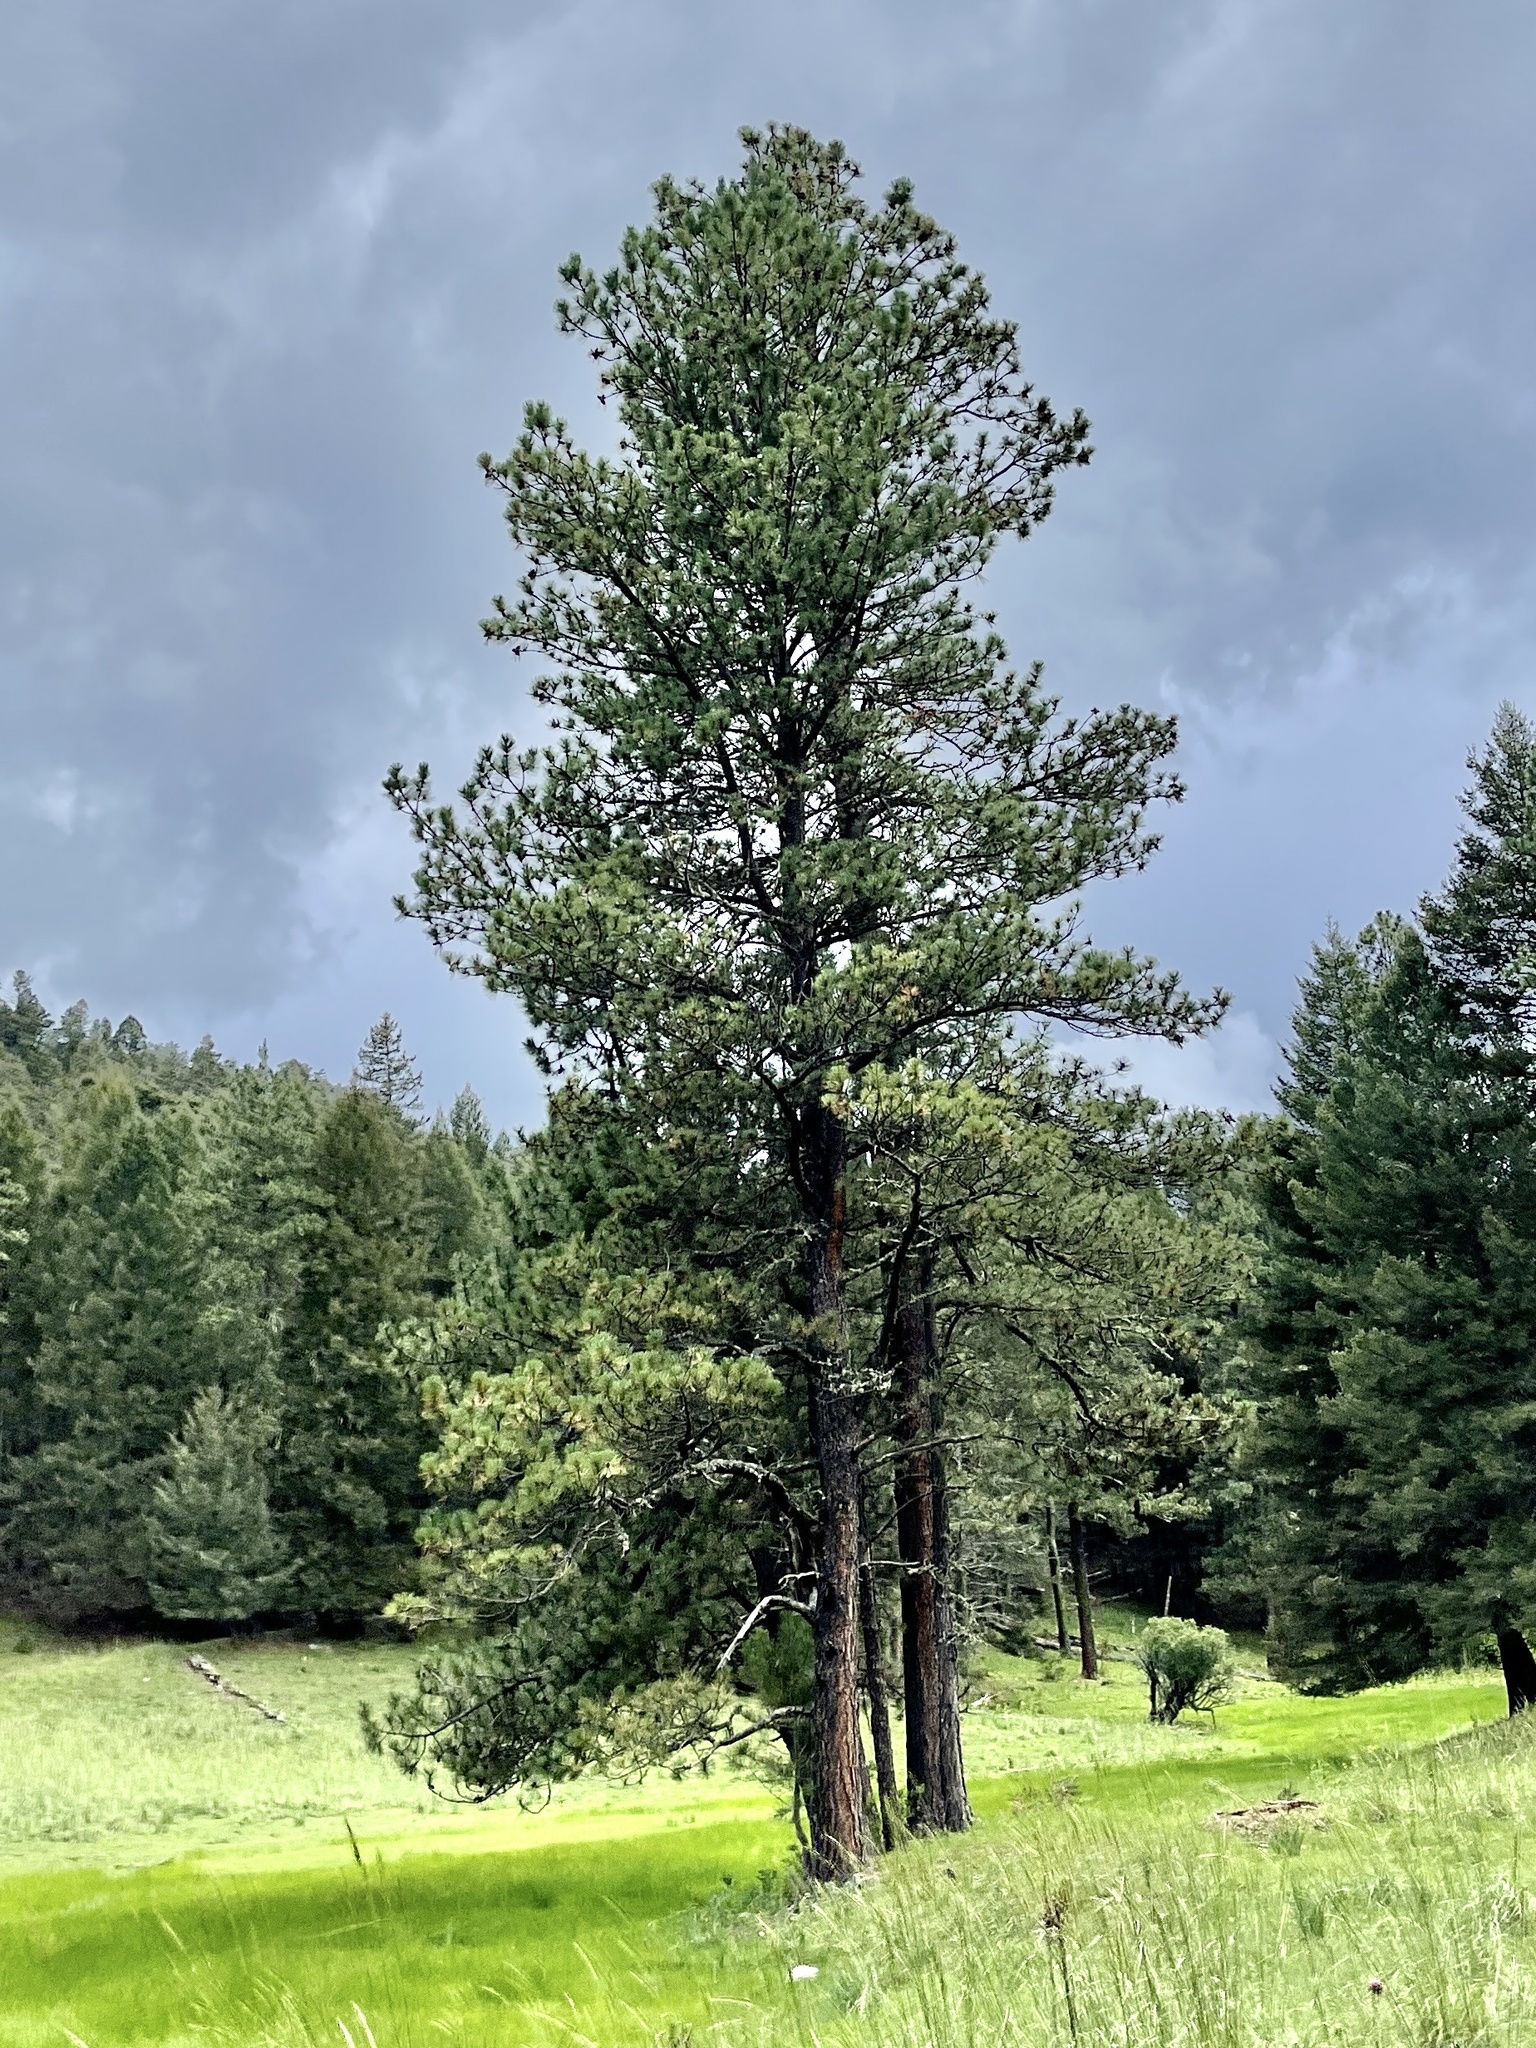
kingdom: Plantae
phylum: Tracheophyta
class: Pinopsida
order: Pinales
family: Pinaceae
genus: Pinus
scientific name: Pinus ponderosa
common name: Western yellow-pine
